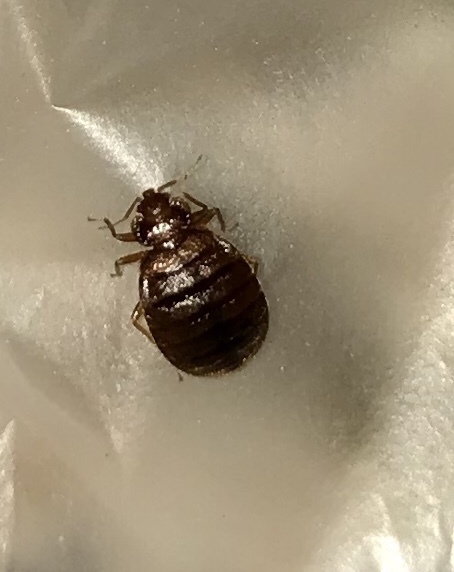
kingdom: Animalia
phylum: Arthropoda
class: Insecta
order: Hemiptera
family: Cimicidae
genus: Cimex
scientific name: Cimex lectularius
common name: Bed bug
